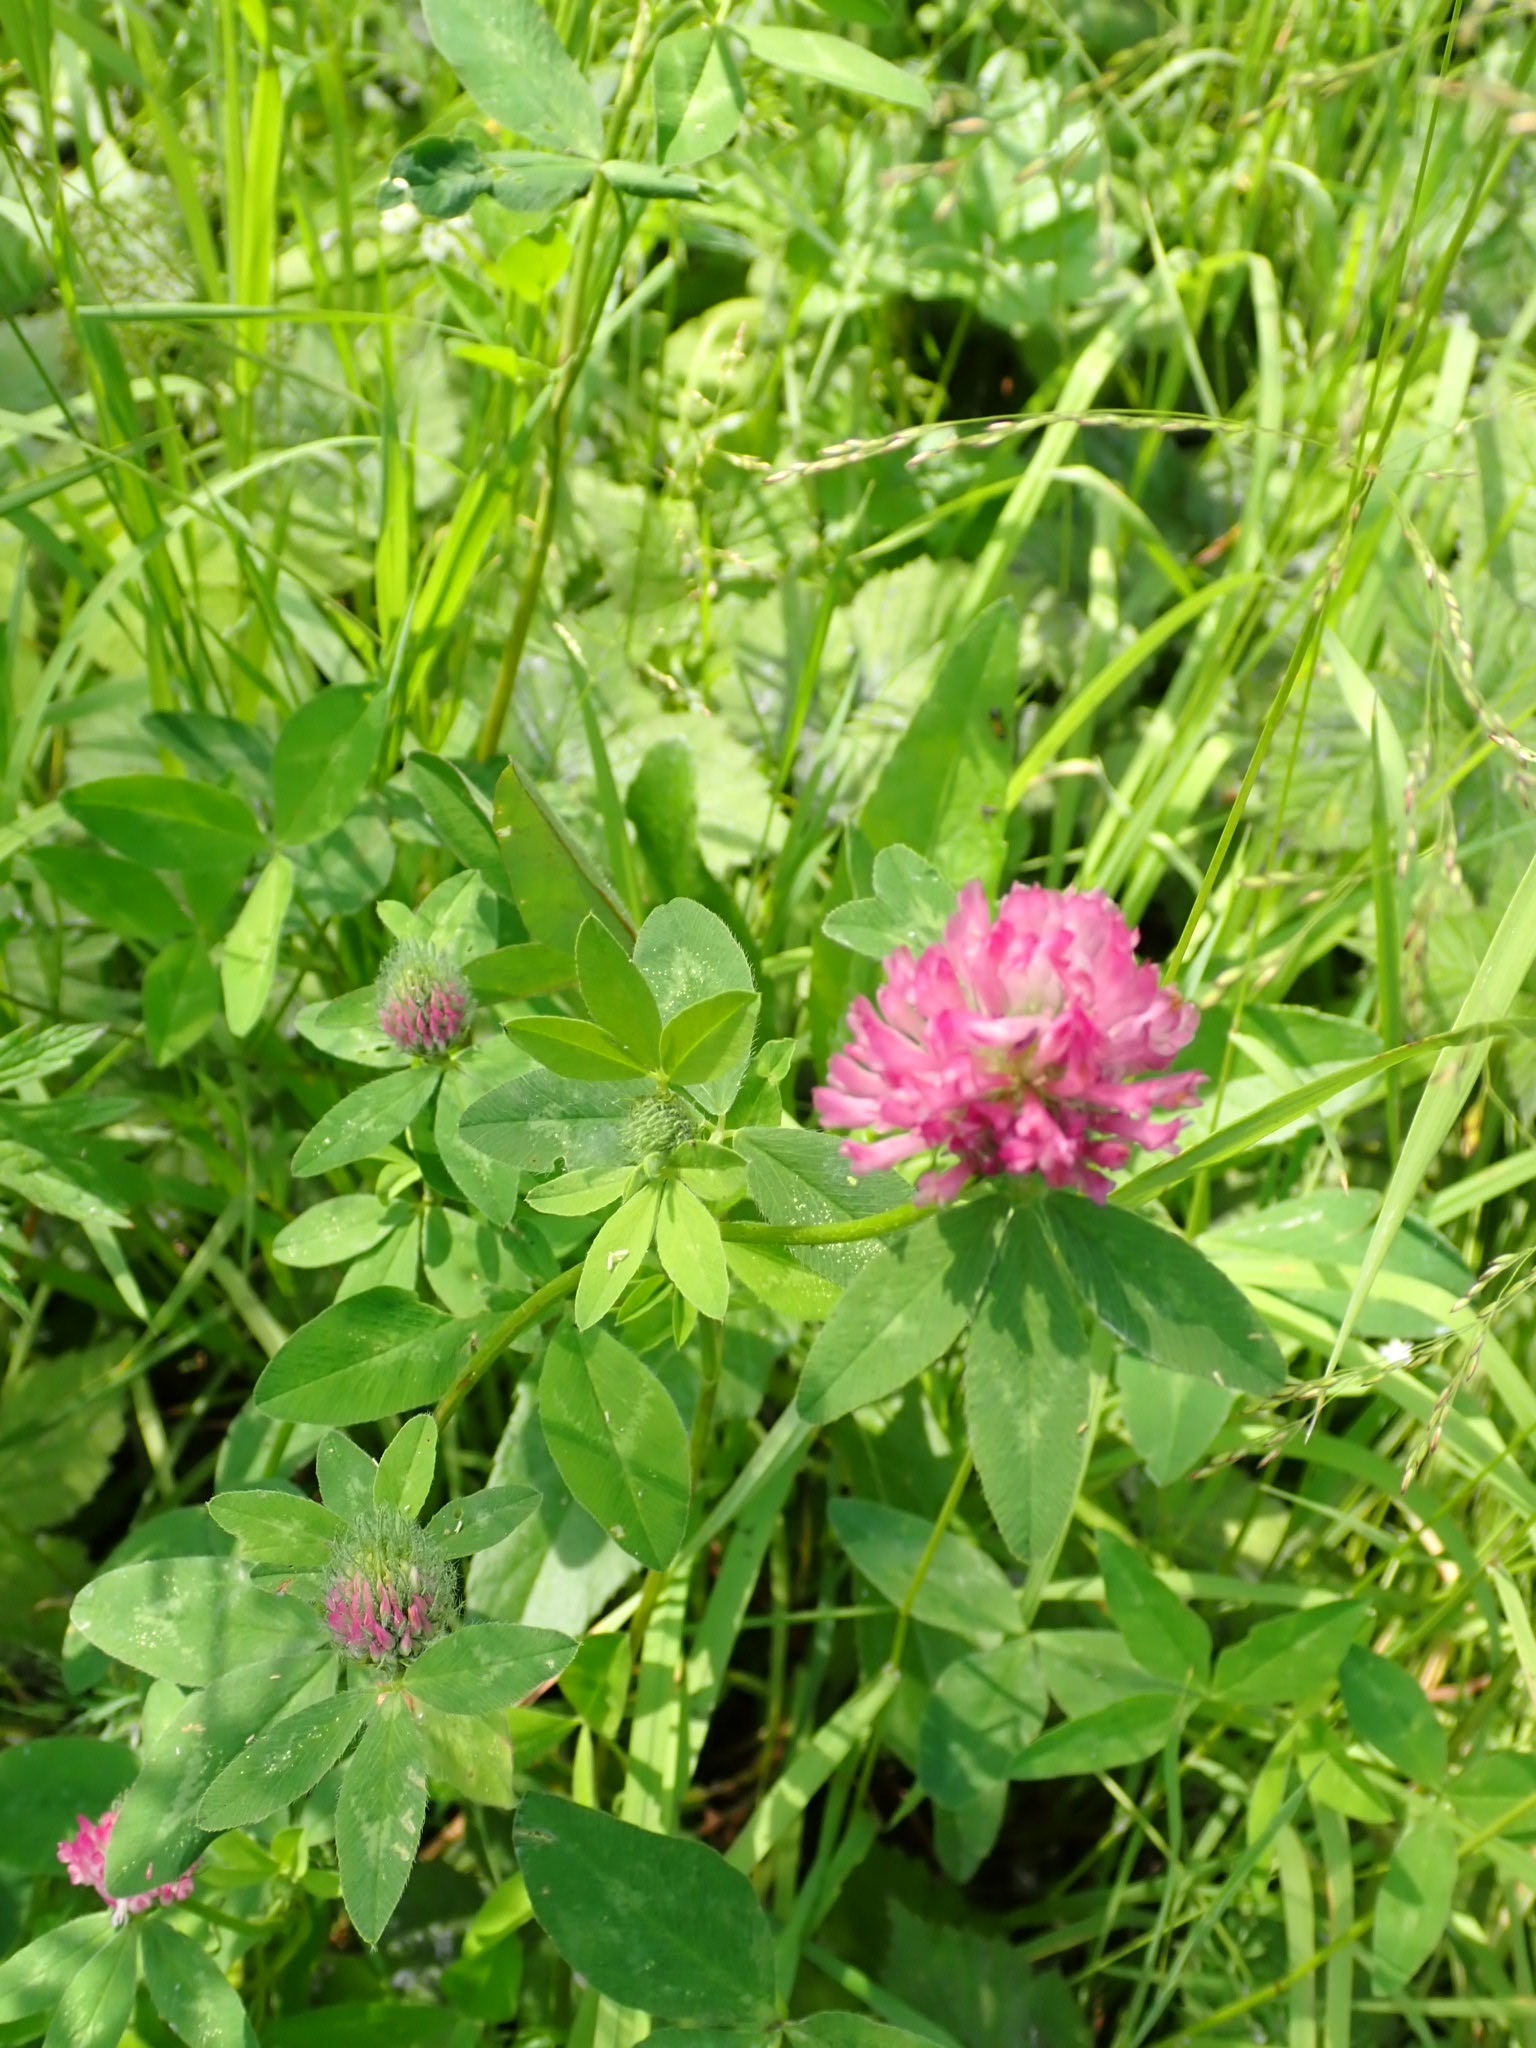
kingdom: Plantae
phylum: Tracheophyta
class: Magnoliopsida
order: Fabales
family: Fabaceae
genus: Trifolium
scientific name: Trifolium pratense
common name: Red clover
